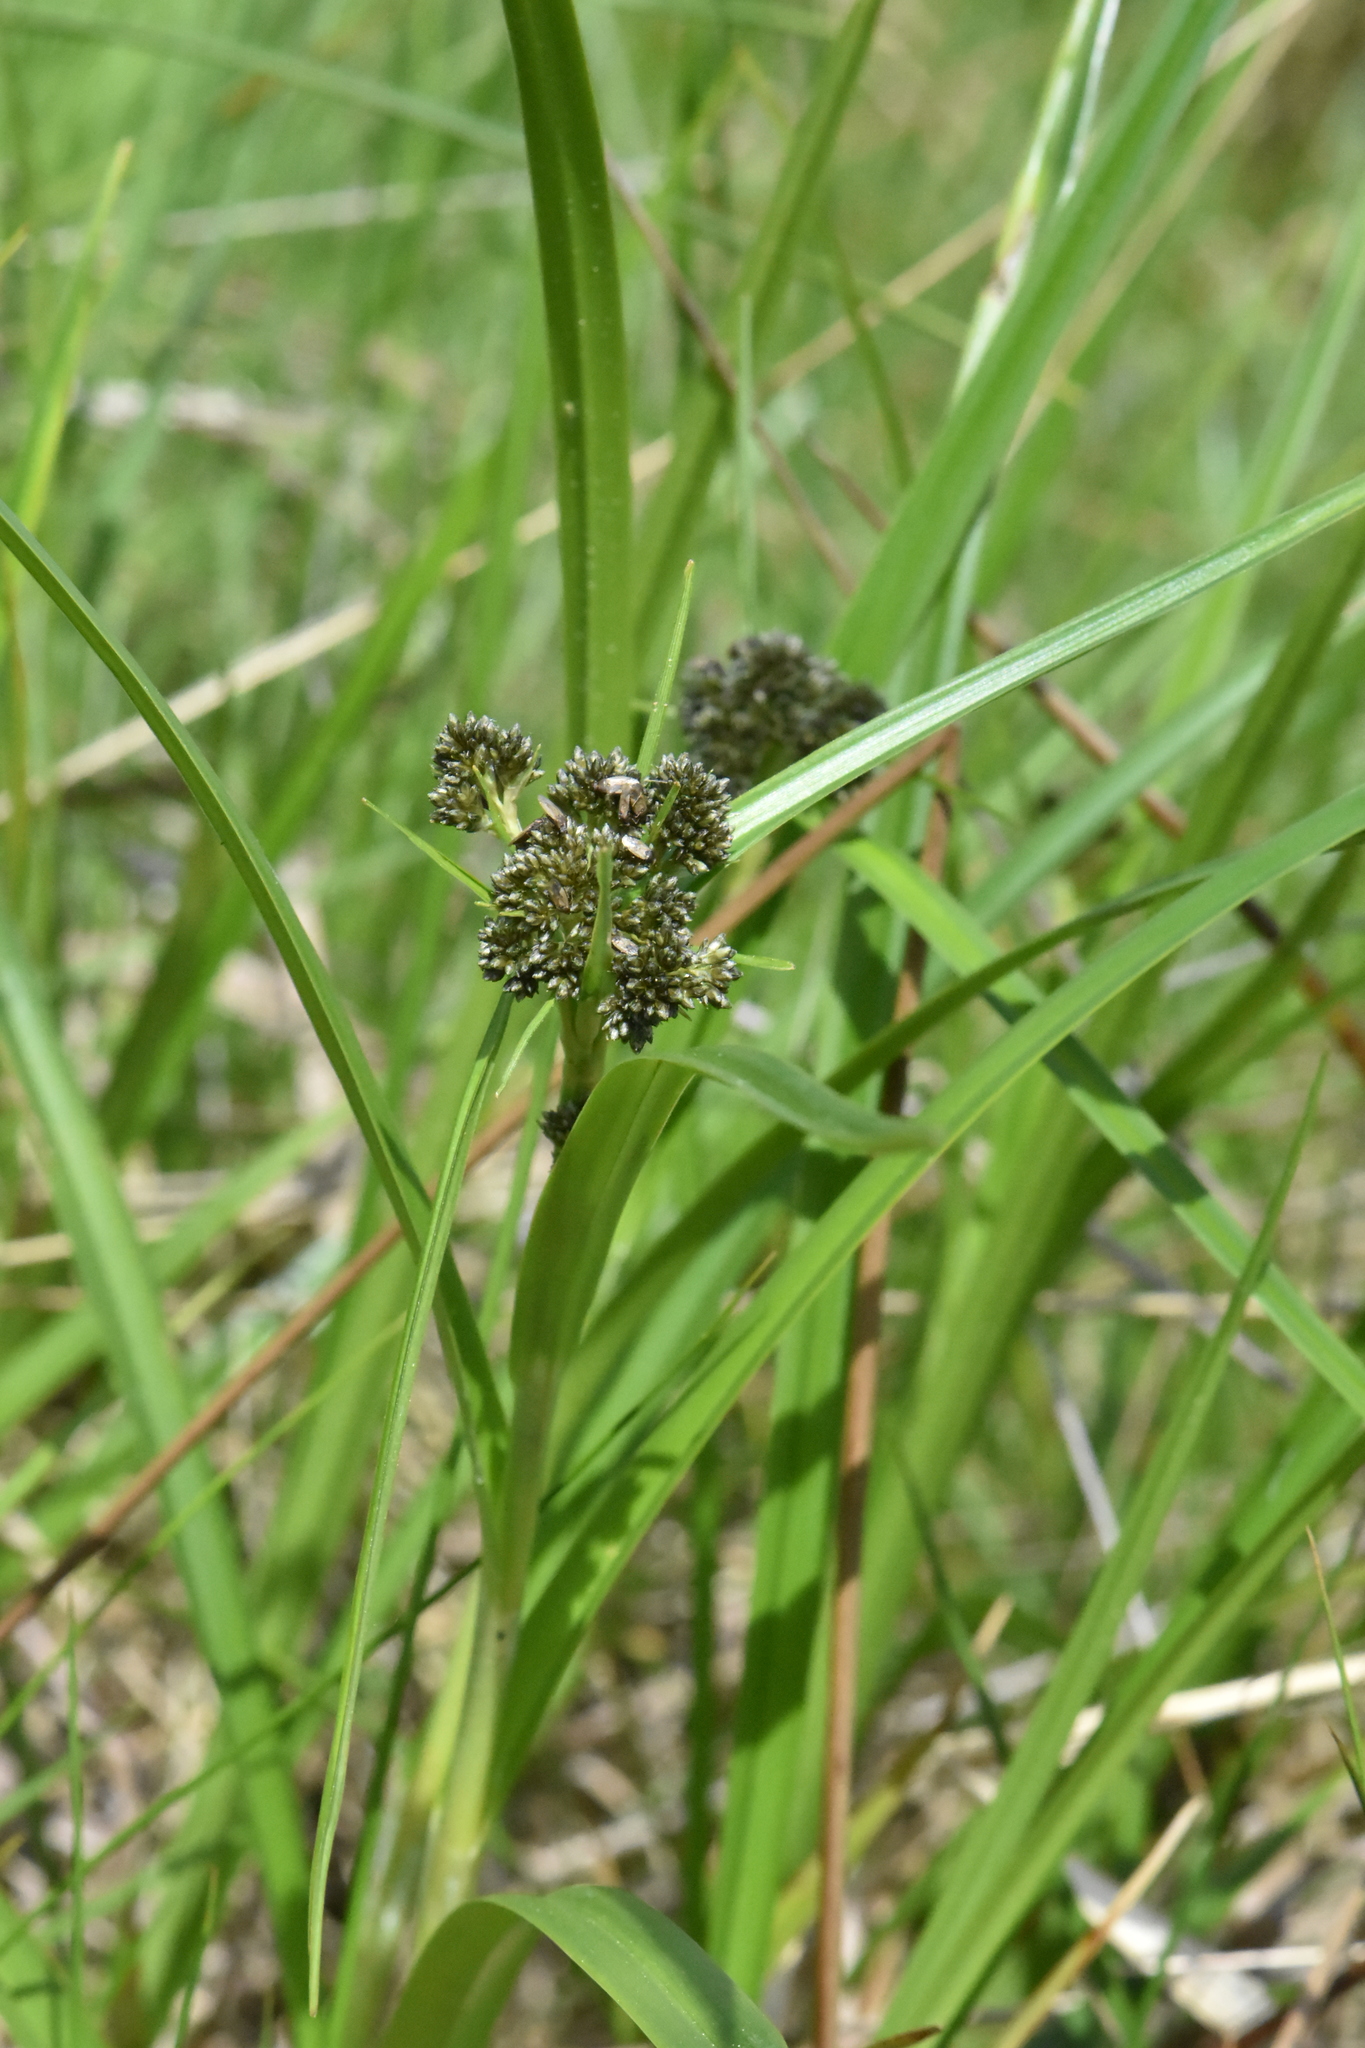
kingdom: Plantae
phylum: Tracheophyta
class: Liliopsida
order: Poales
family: Cyperaceae
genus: Scirpus
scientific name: Scirpus sylvaticus
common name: Wood club-rush
